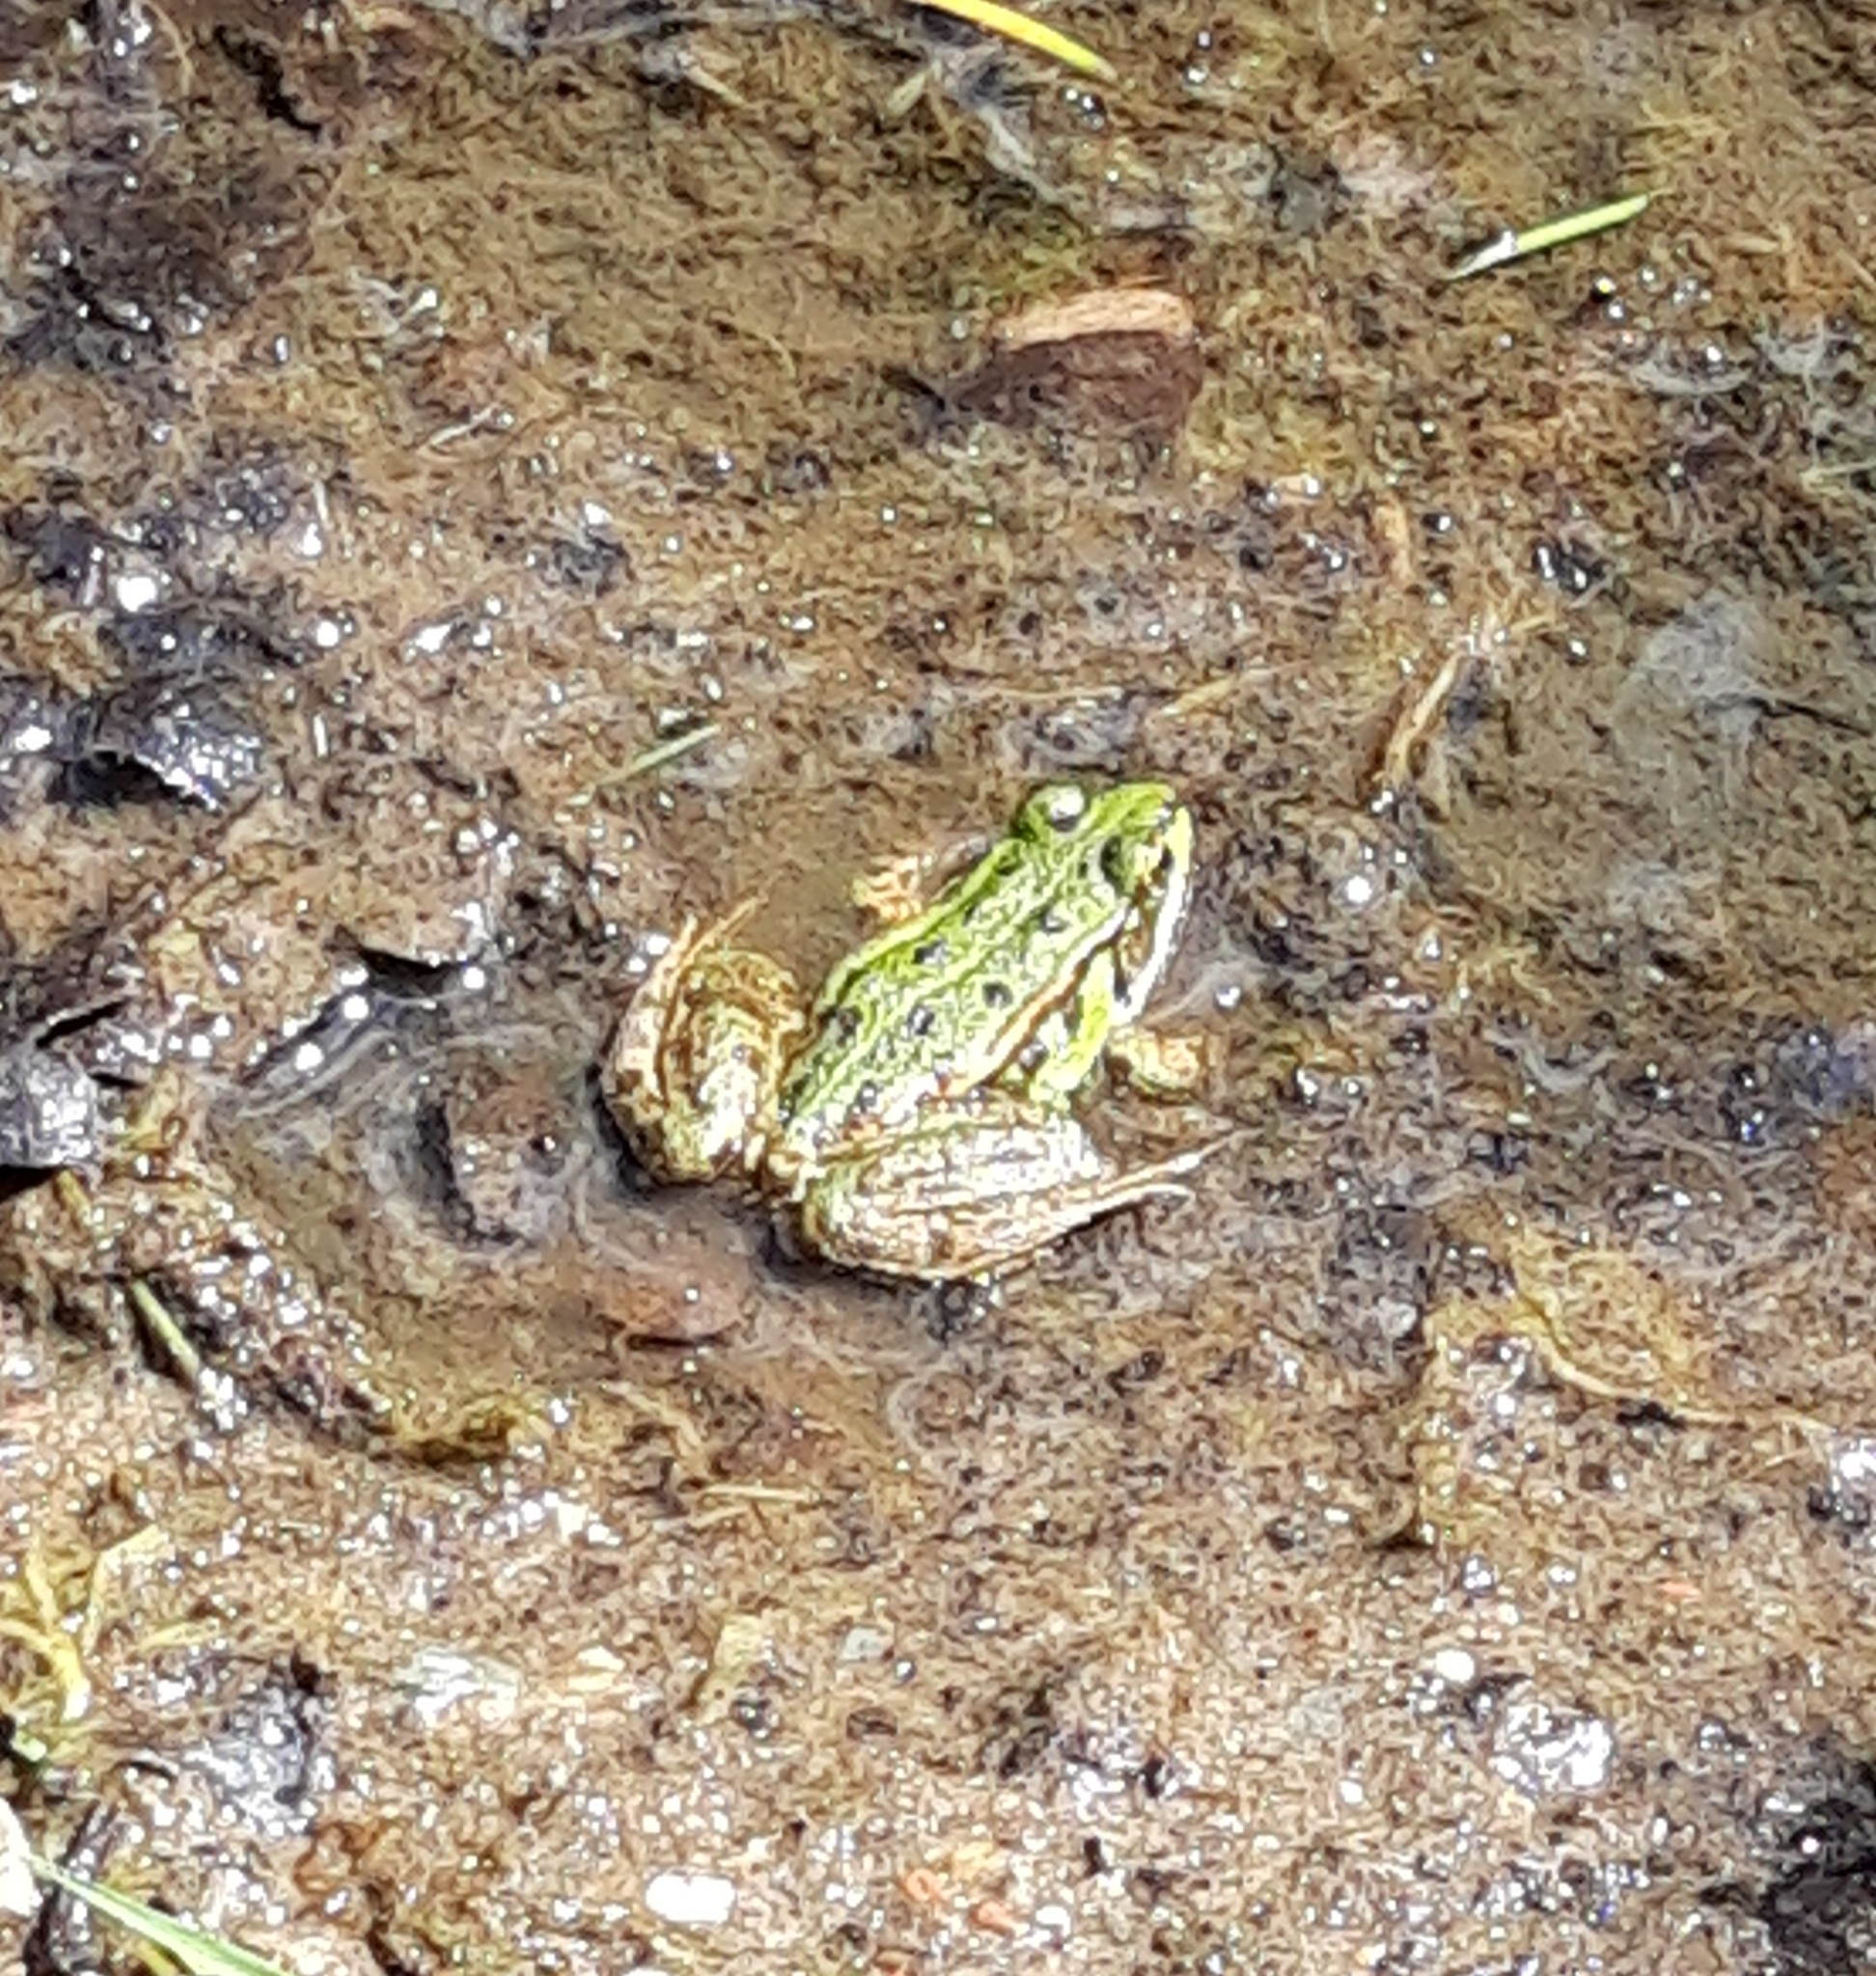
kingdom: Animalia
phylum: Chordata
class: Amphibia
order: Anura
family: Ranidae
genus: Pelophylax
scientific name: Pelophylax lessonae
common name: Pool frog
